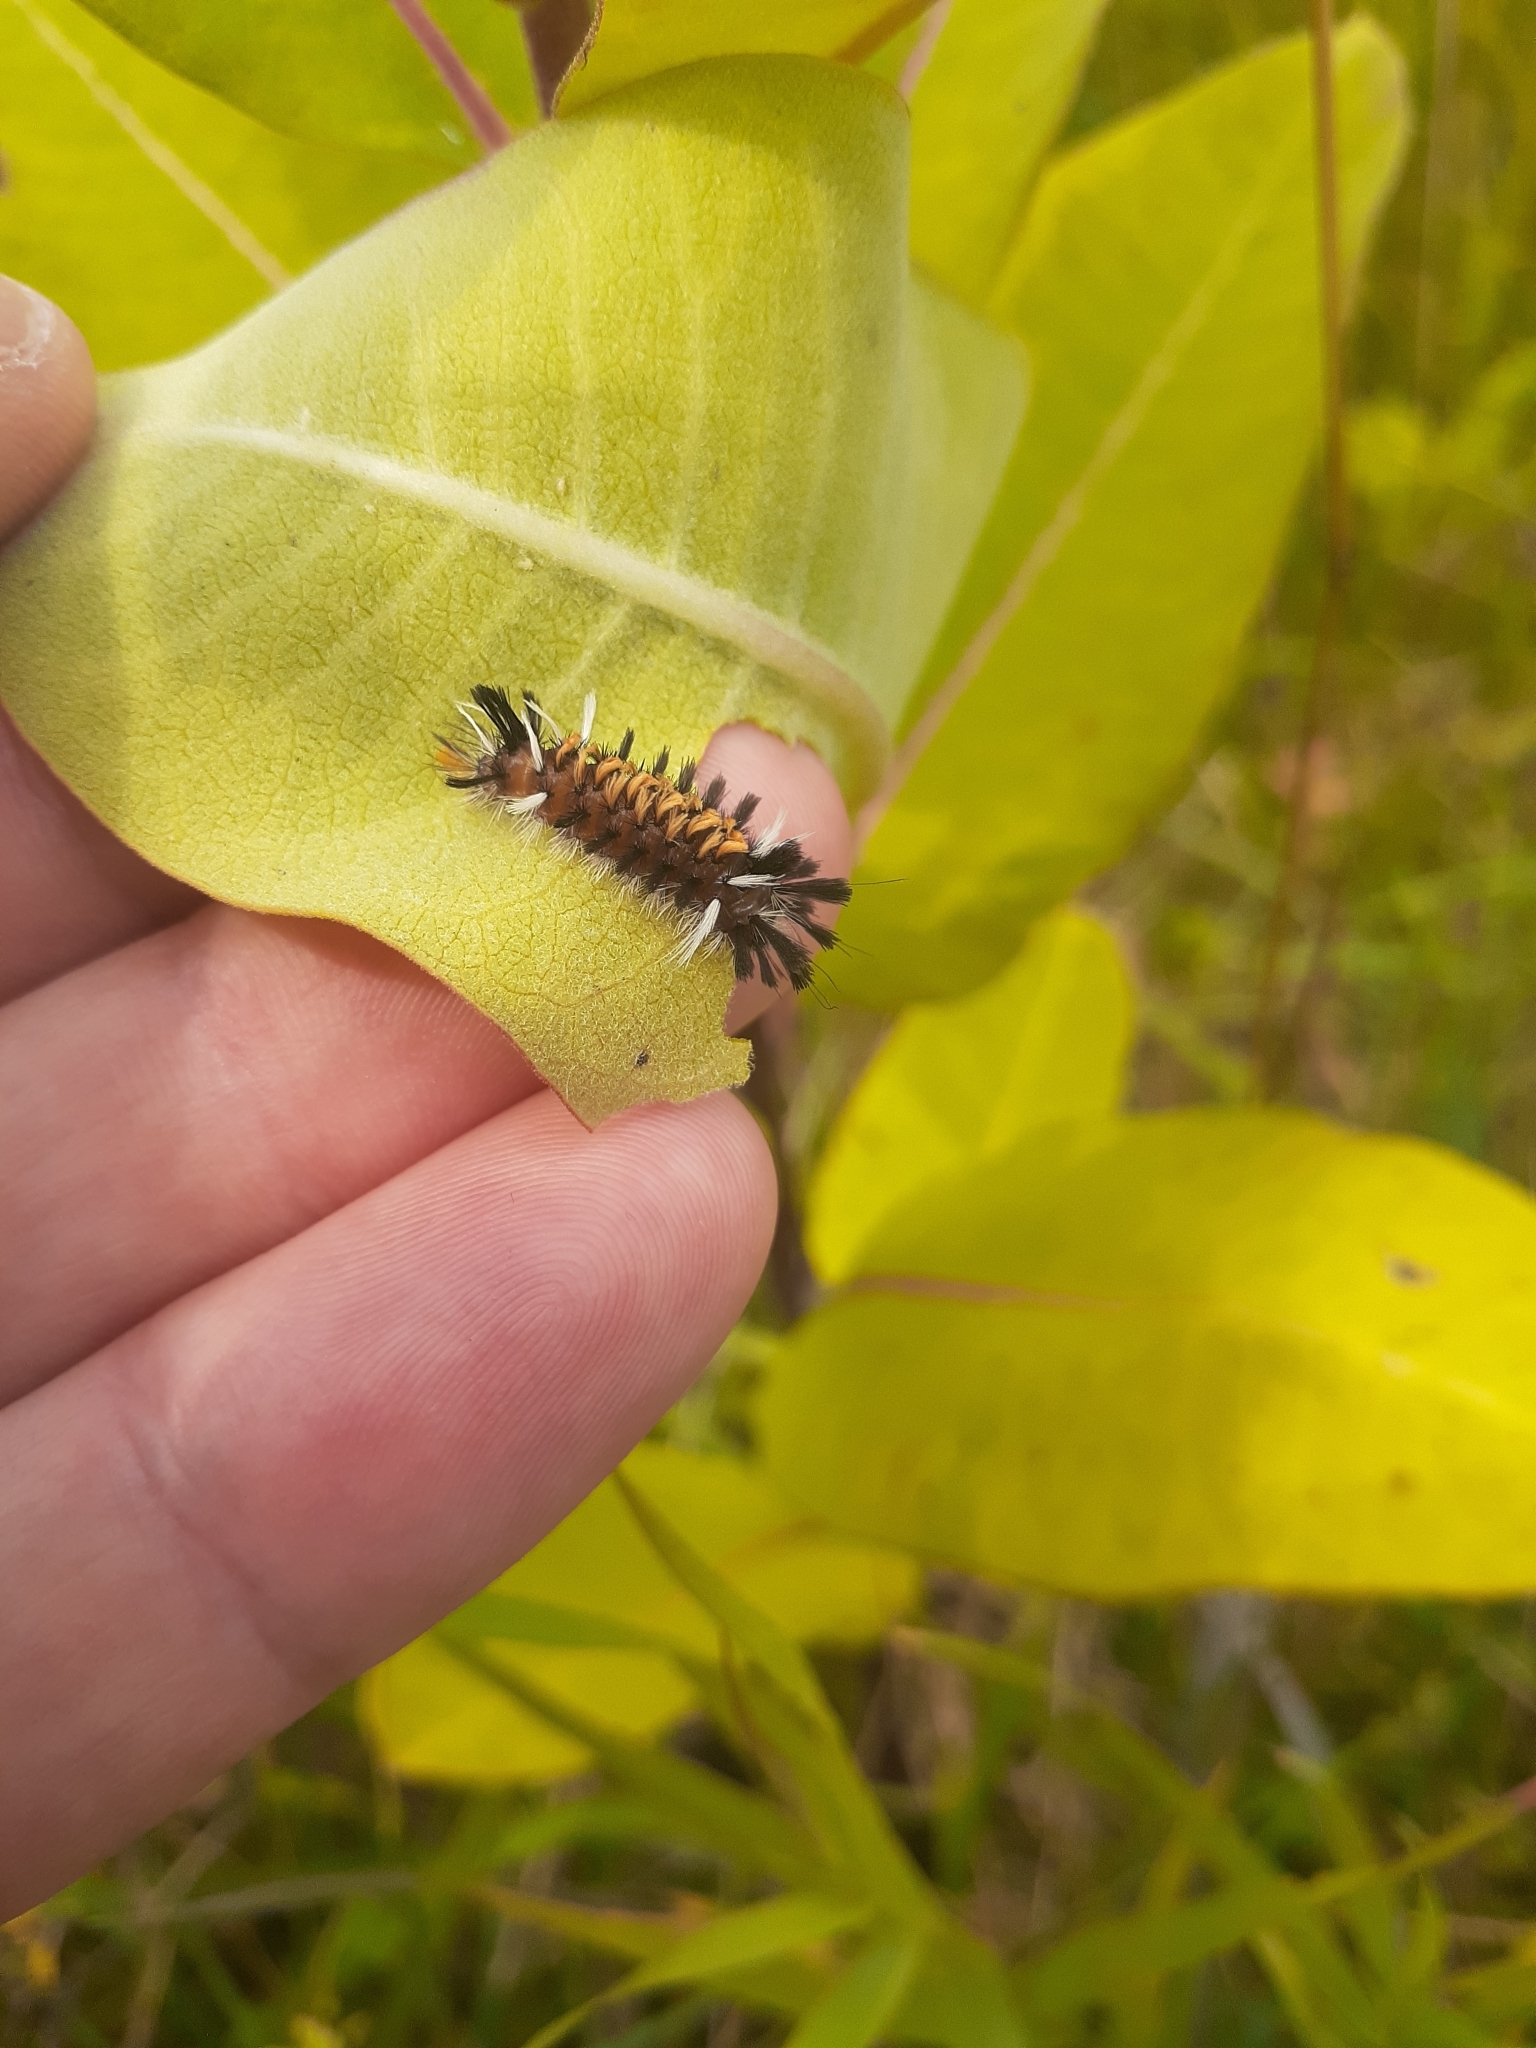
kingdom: Animalia
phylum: Arthropoda
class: Insecta
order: Lepidoptera
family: Erebidae
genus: Euchaetes
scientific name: Euchaetes egle
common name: Milkweed tussock moth
